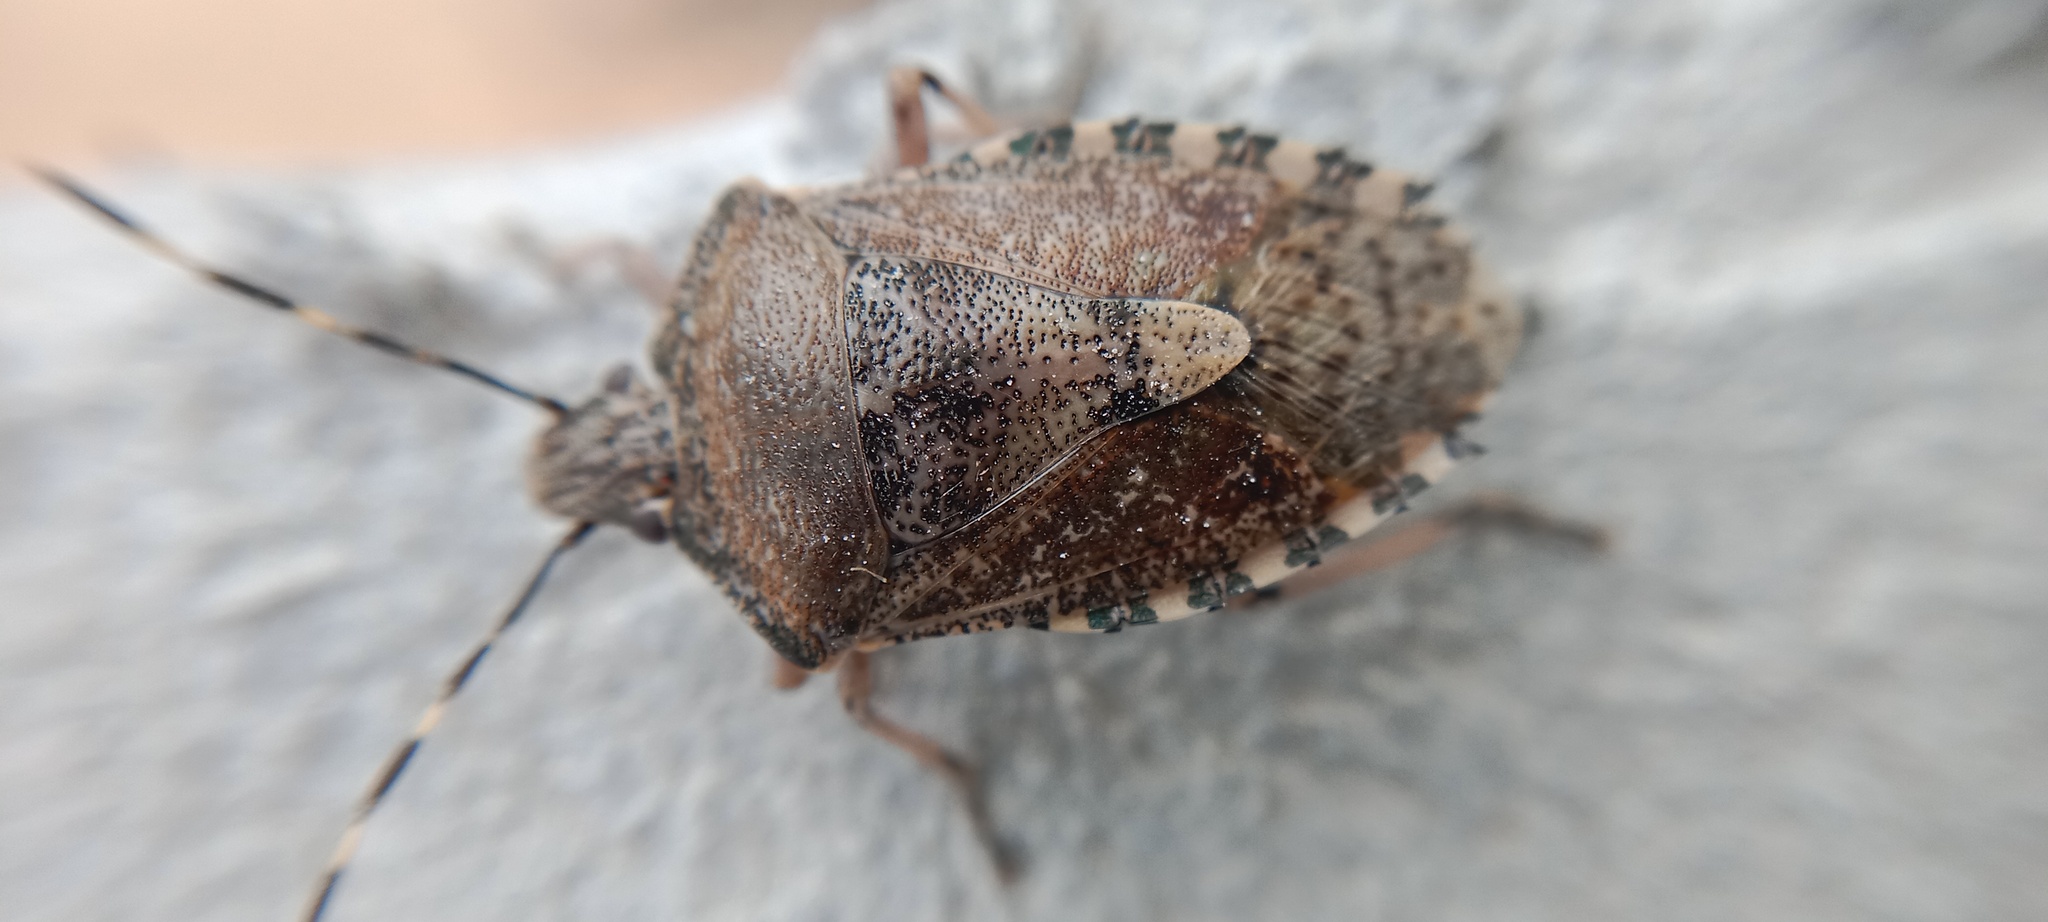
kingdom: Animalia
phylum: Arthropoda
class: Insecta
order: Hemiptera
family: Pentatomidae
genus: Rhaphigaster
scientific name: Rhaphigaster nebulosa
